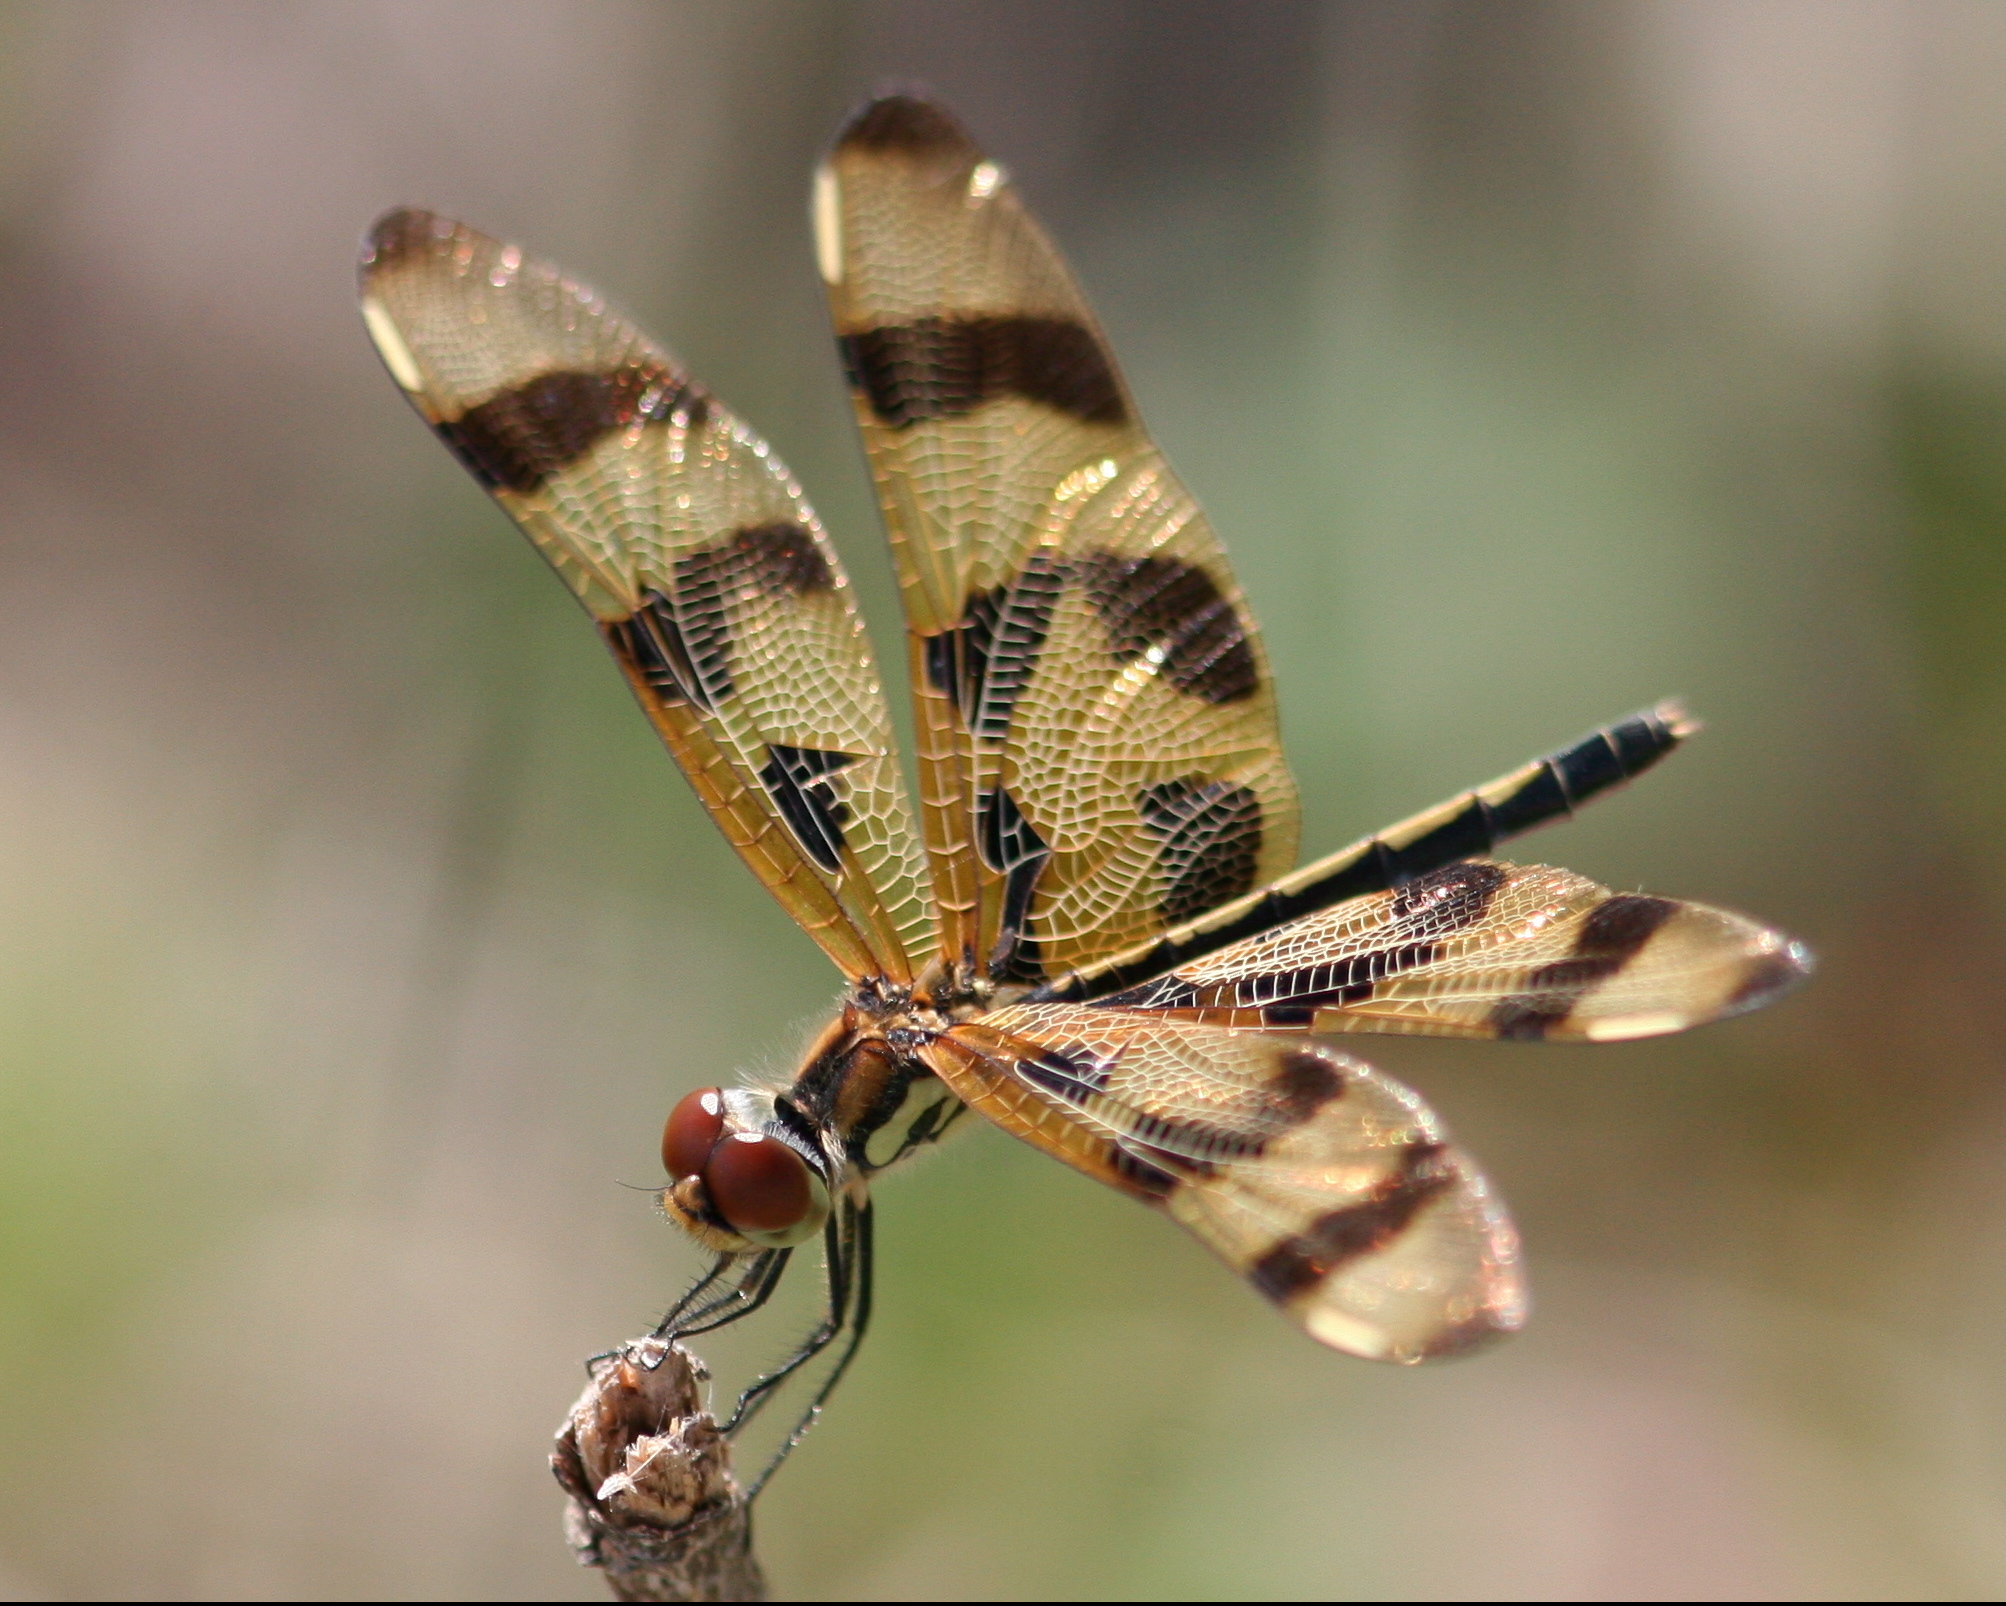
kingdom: Animalia
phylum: Arthropoda
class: Insecta
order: Odonata
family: Libellulidae
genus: Celithemis
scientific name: Celithemis eponina
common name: Halloween pennant
